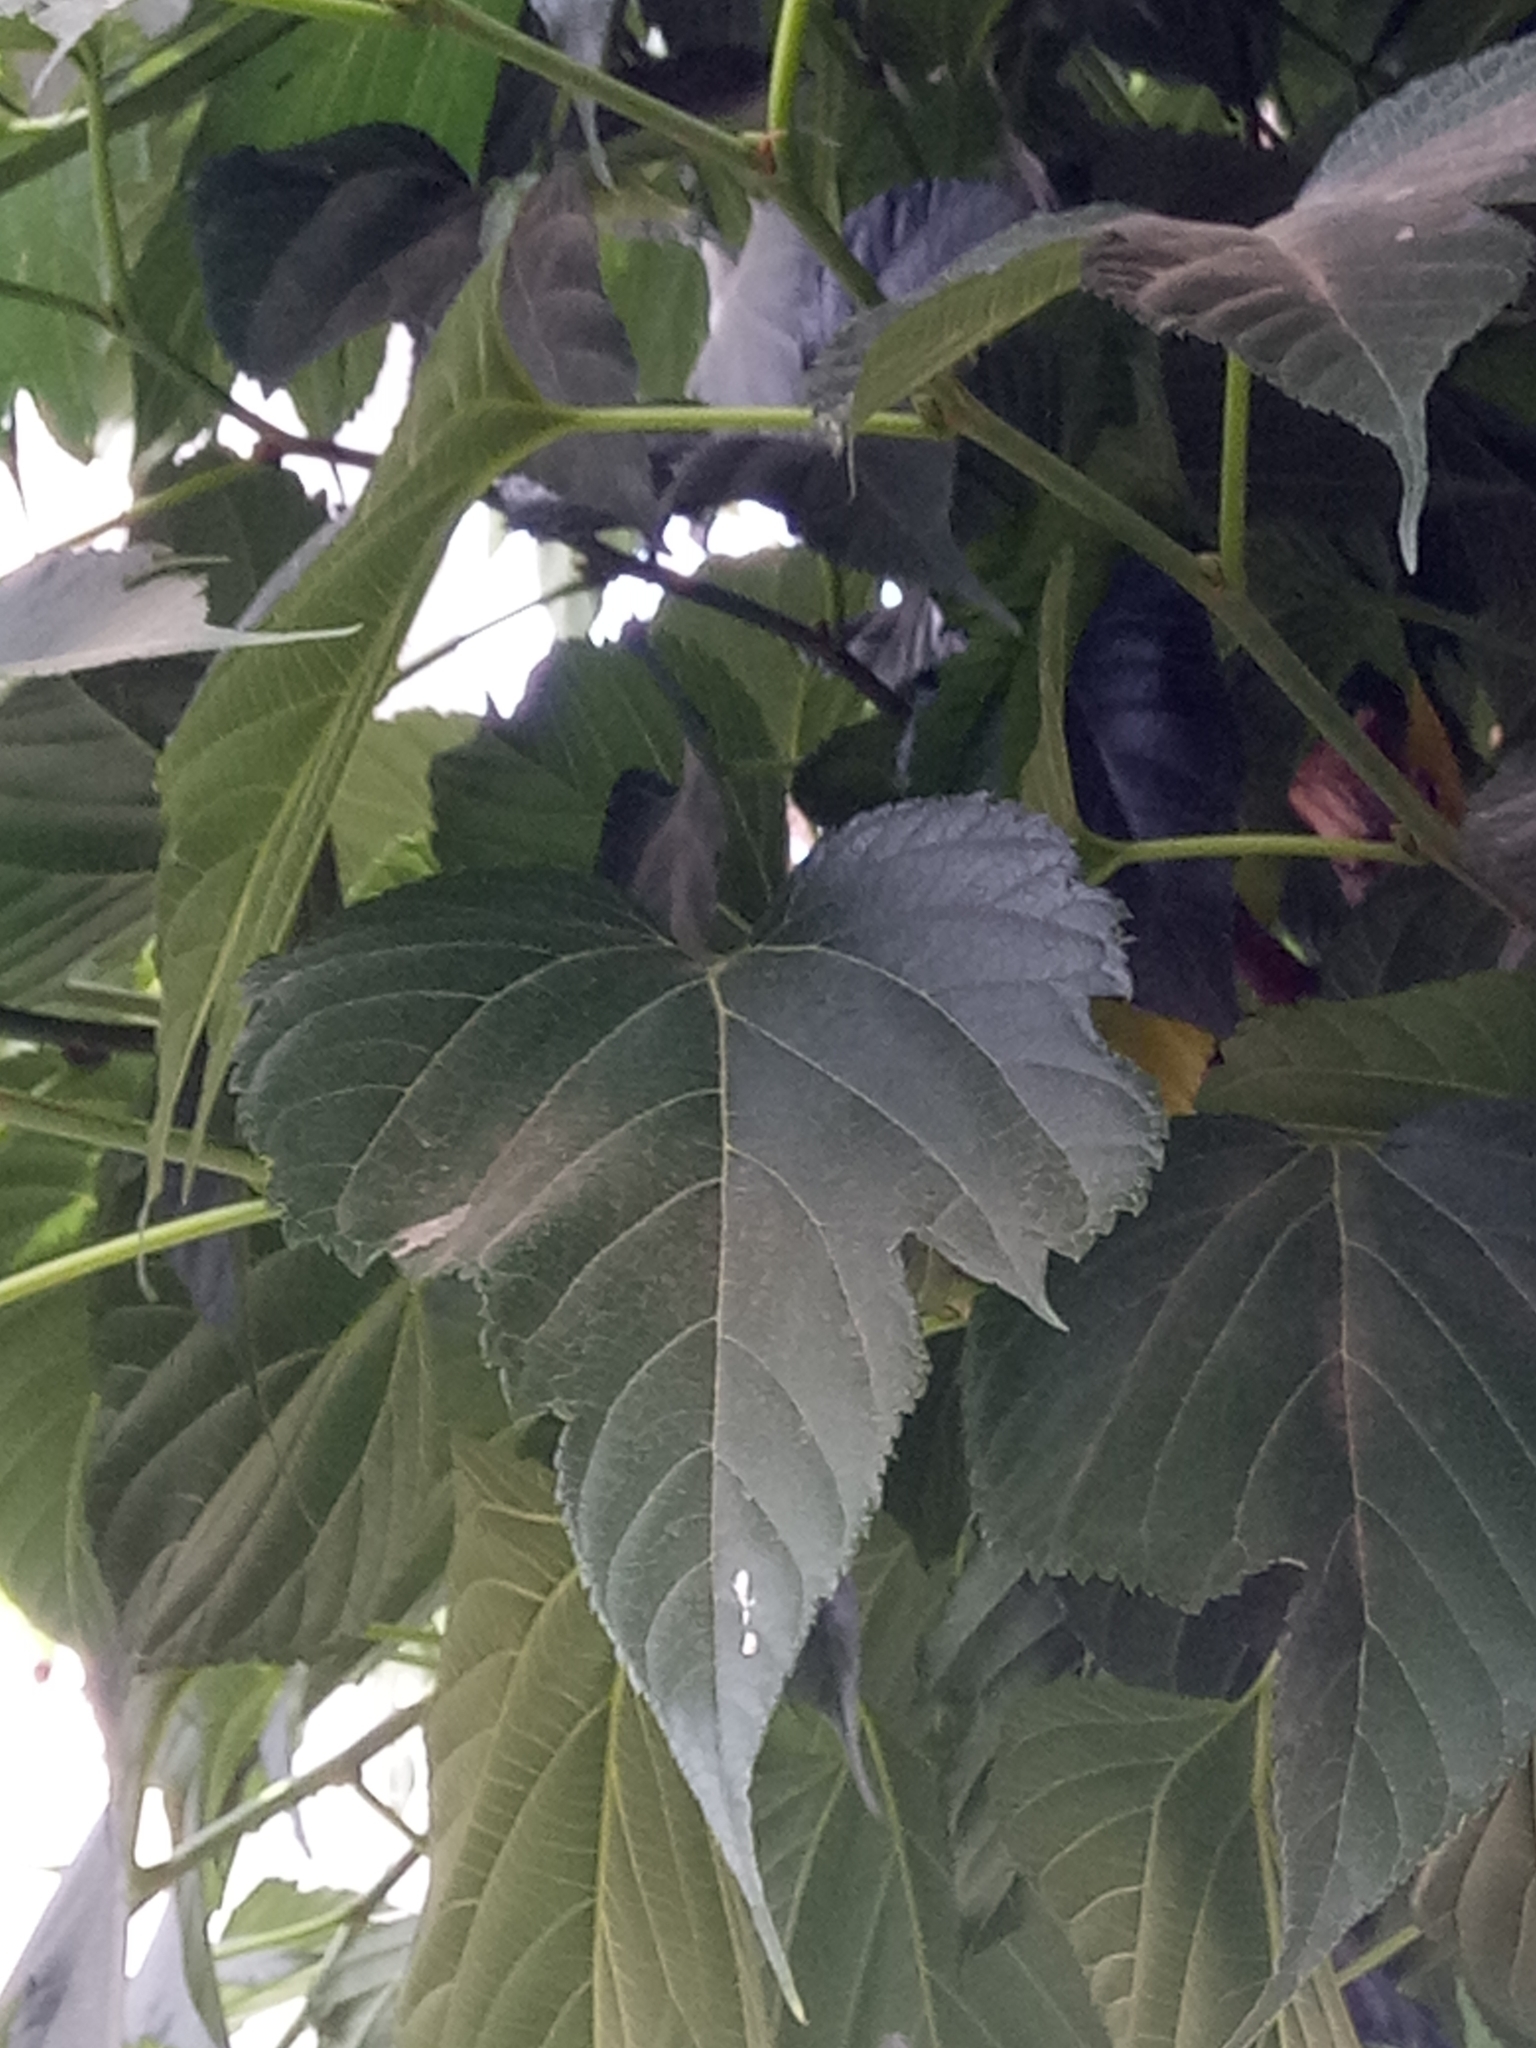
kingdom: Plantae
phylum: Tracheophyta
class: Magnoliopsida
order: Rosales
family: Moraceae
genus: Morus
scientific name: Morus indica
